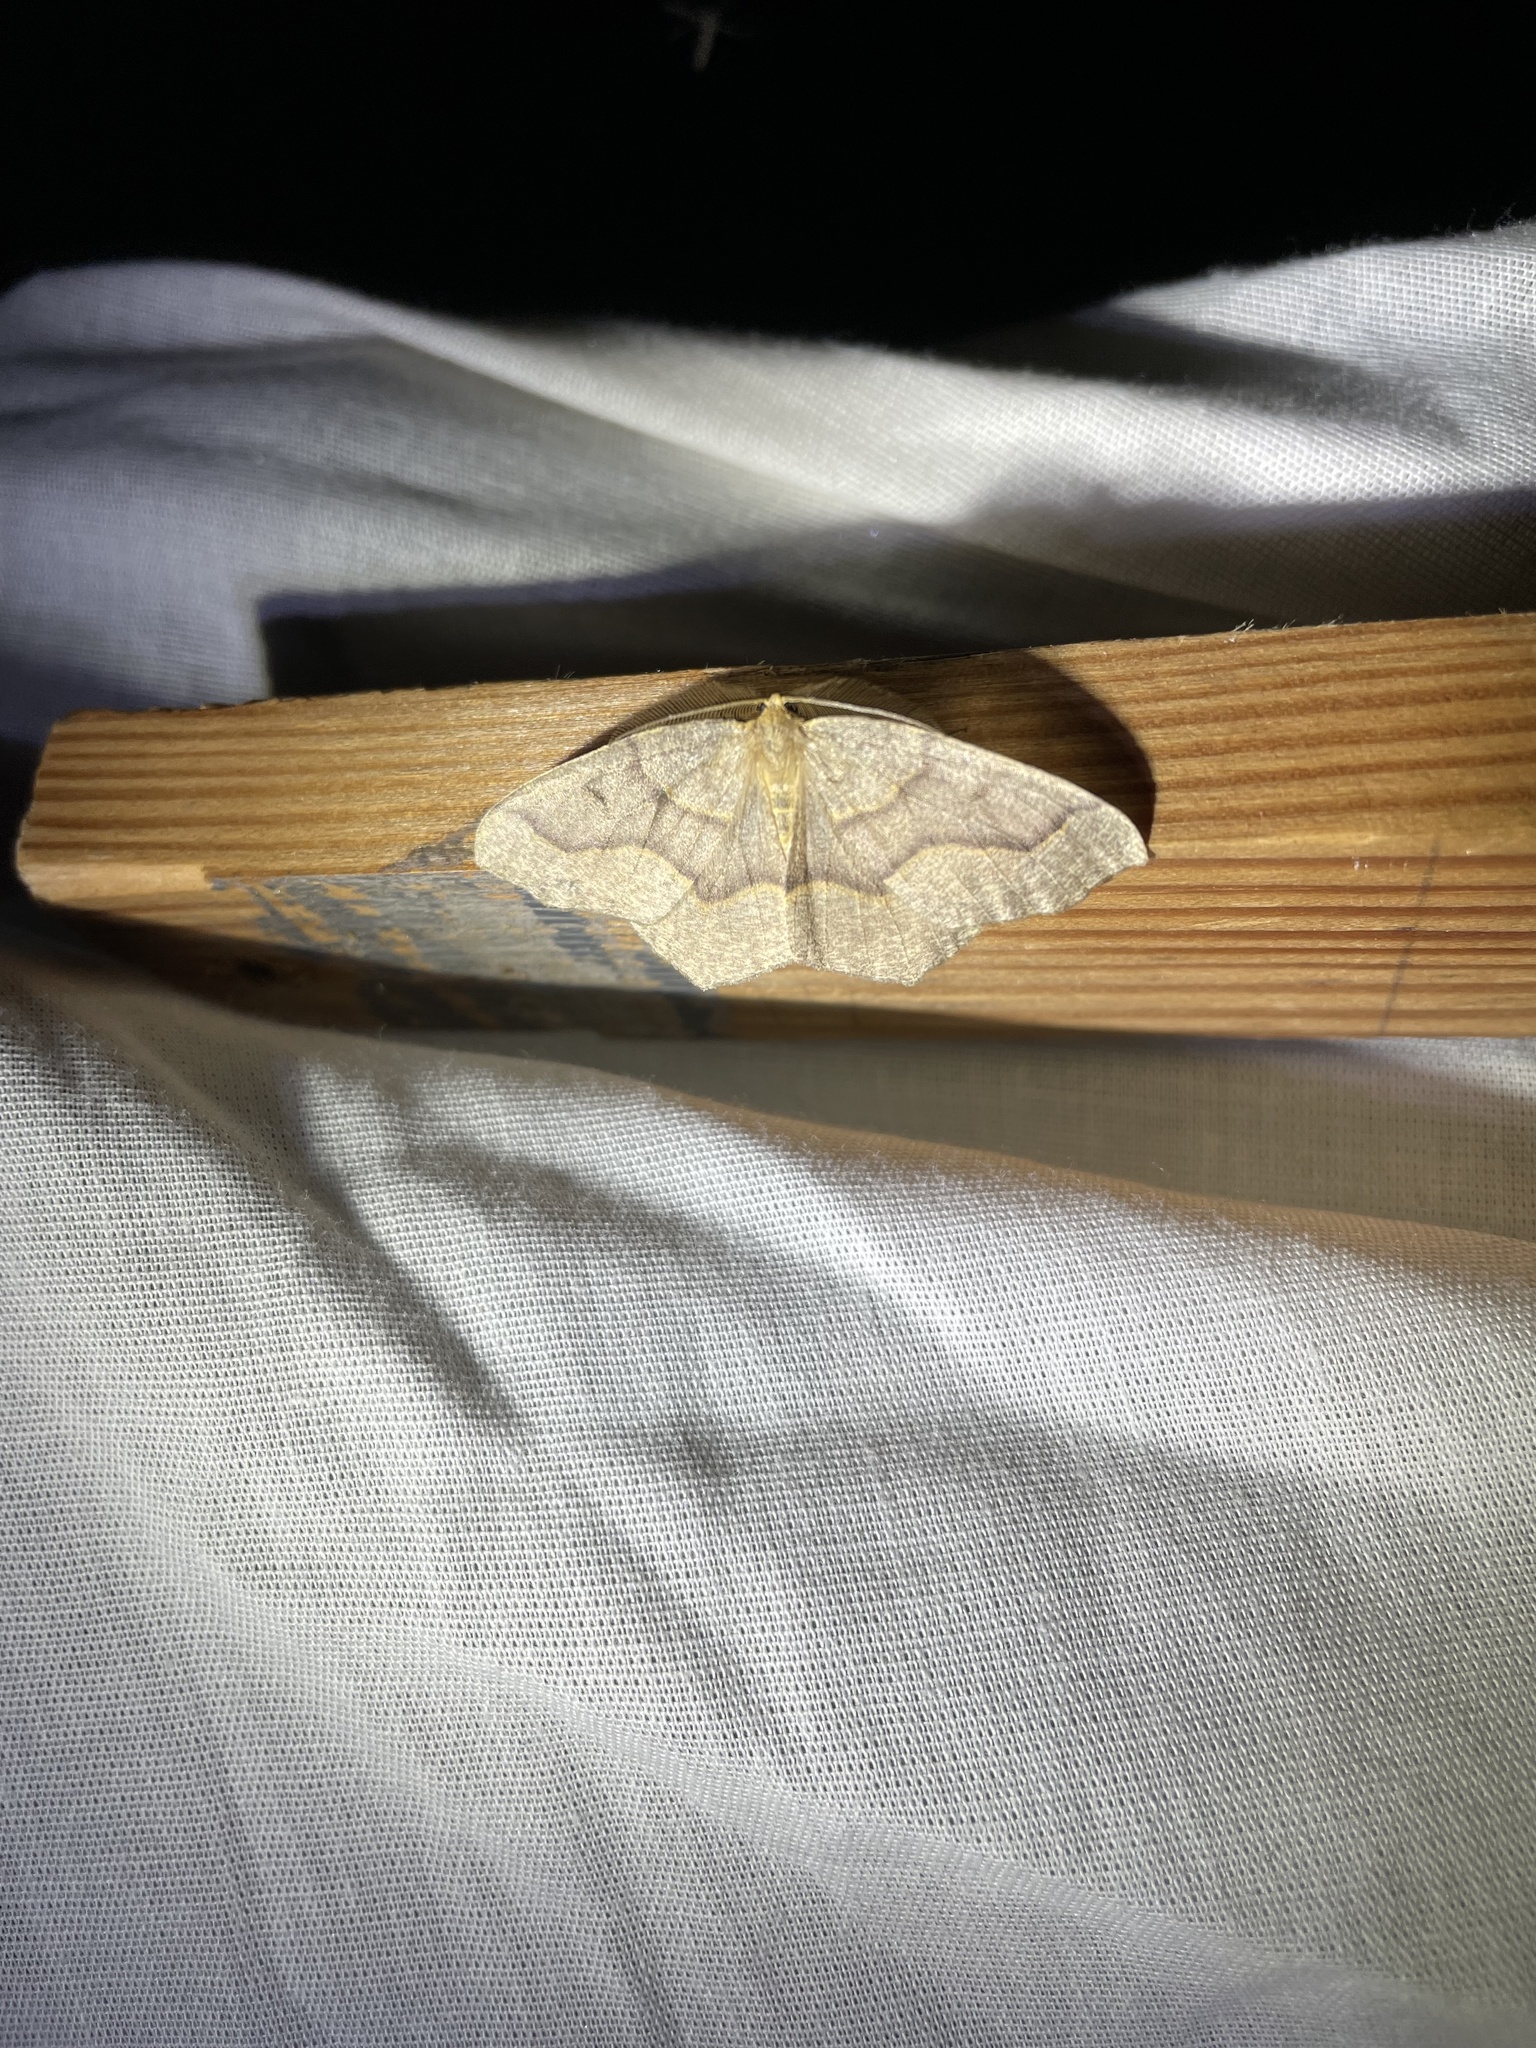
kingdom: Animalia
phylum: Arthropoda
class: Insecta
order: Lepidoptera
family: Geometridae
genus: Lambdina
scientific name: Lambdina fiscellaria
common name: Hemlock looper
